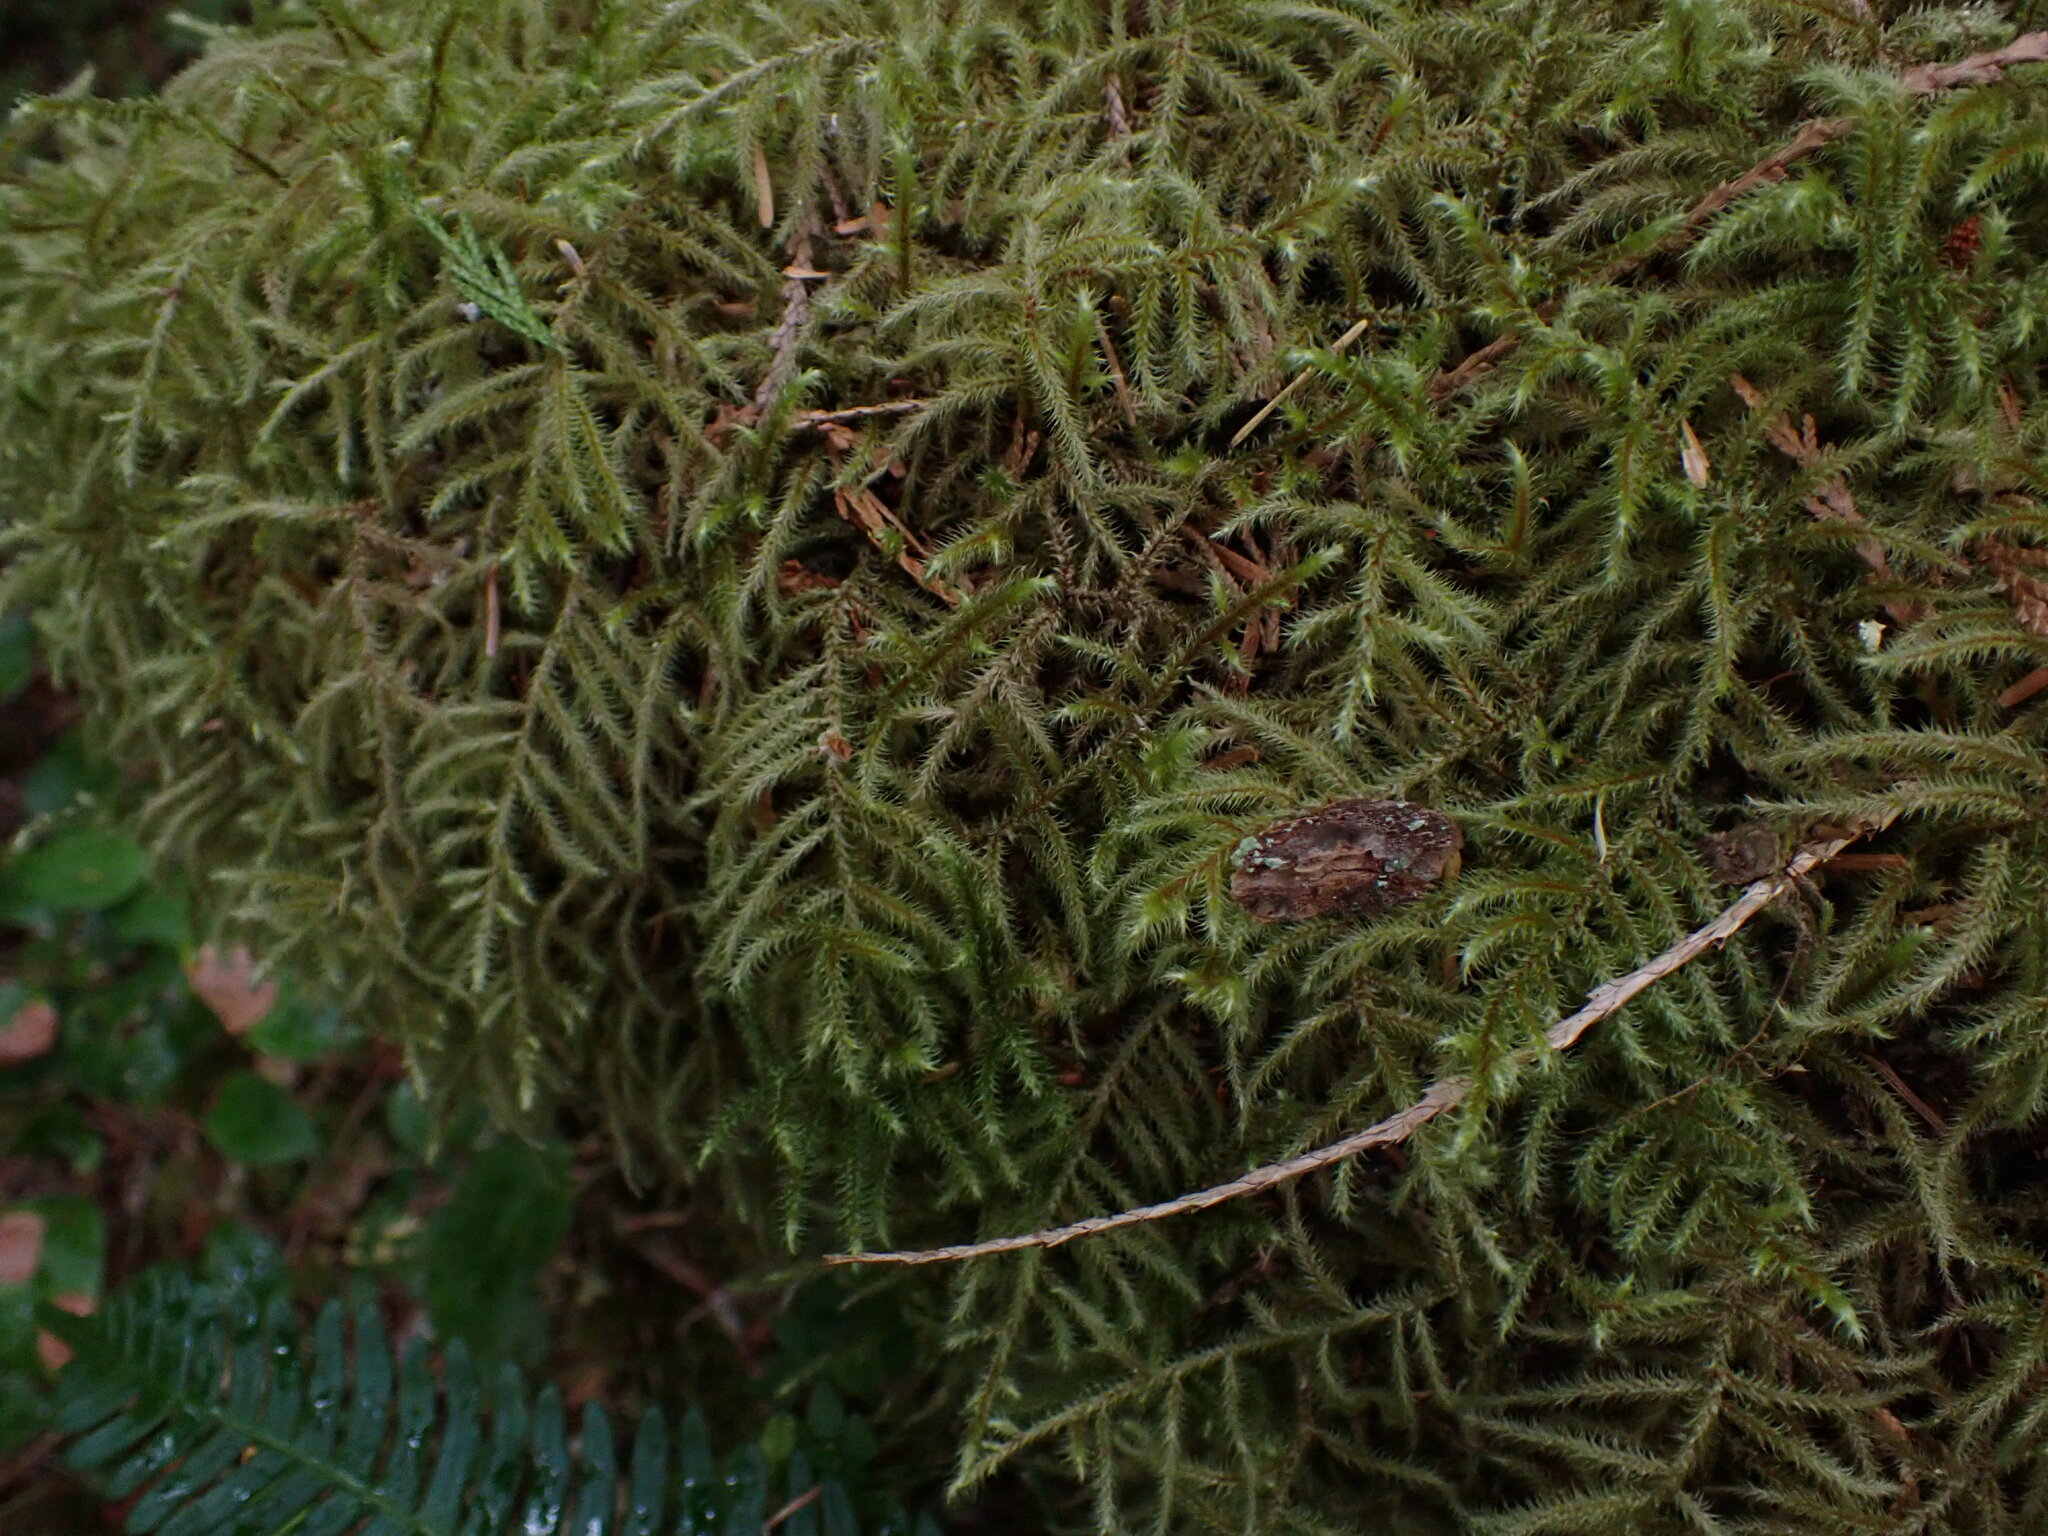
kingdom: Plantae
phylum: Bryophyta
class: Bryopsida
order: Hypnales
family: Hylocomiaceae
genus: Rhytidiadelphus
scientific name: Rhytidiadelphus loreus
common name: Lanky moss
